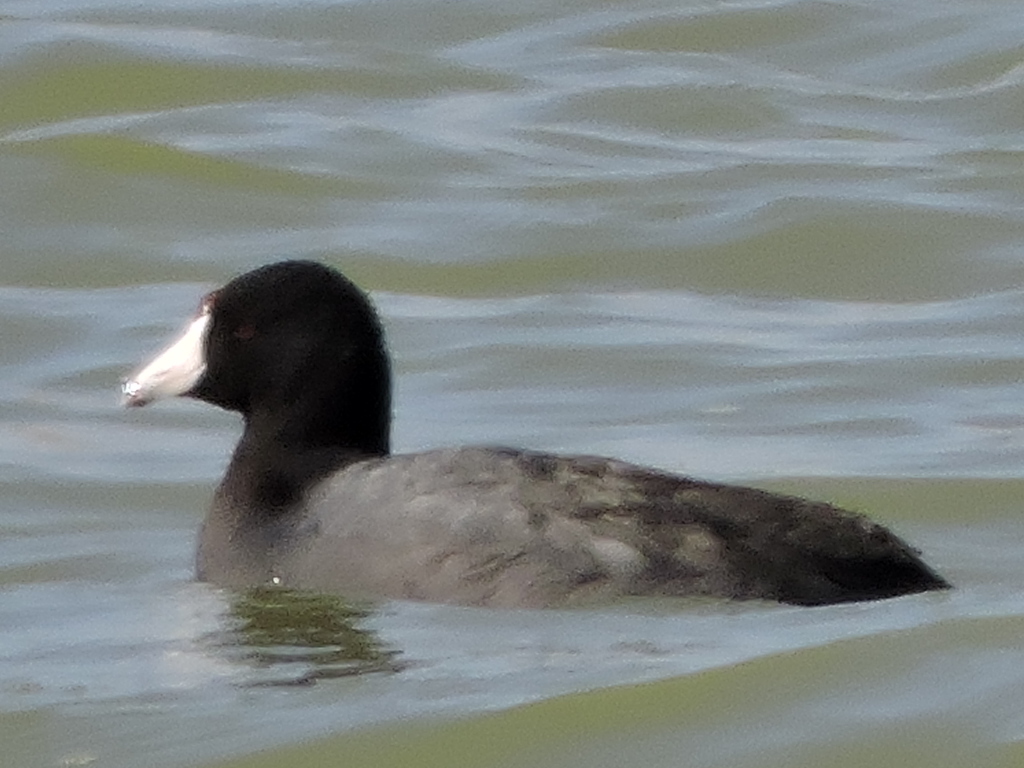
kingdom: Animalia
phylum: Chordata
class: Aves
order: Gruiformes
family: Rallidae
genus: Fulica
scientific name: Fulica americana
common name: American coot
